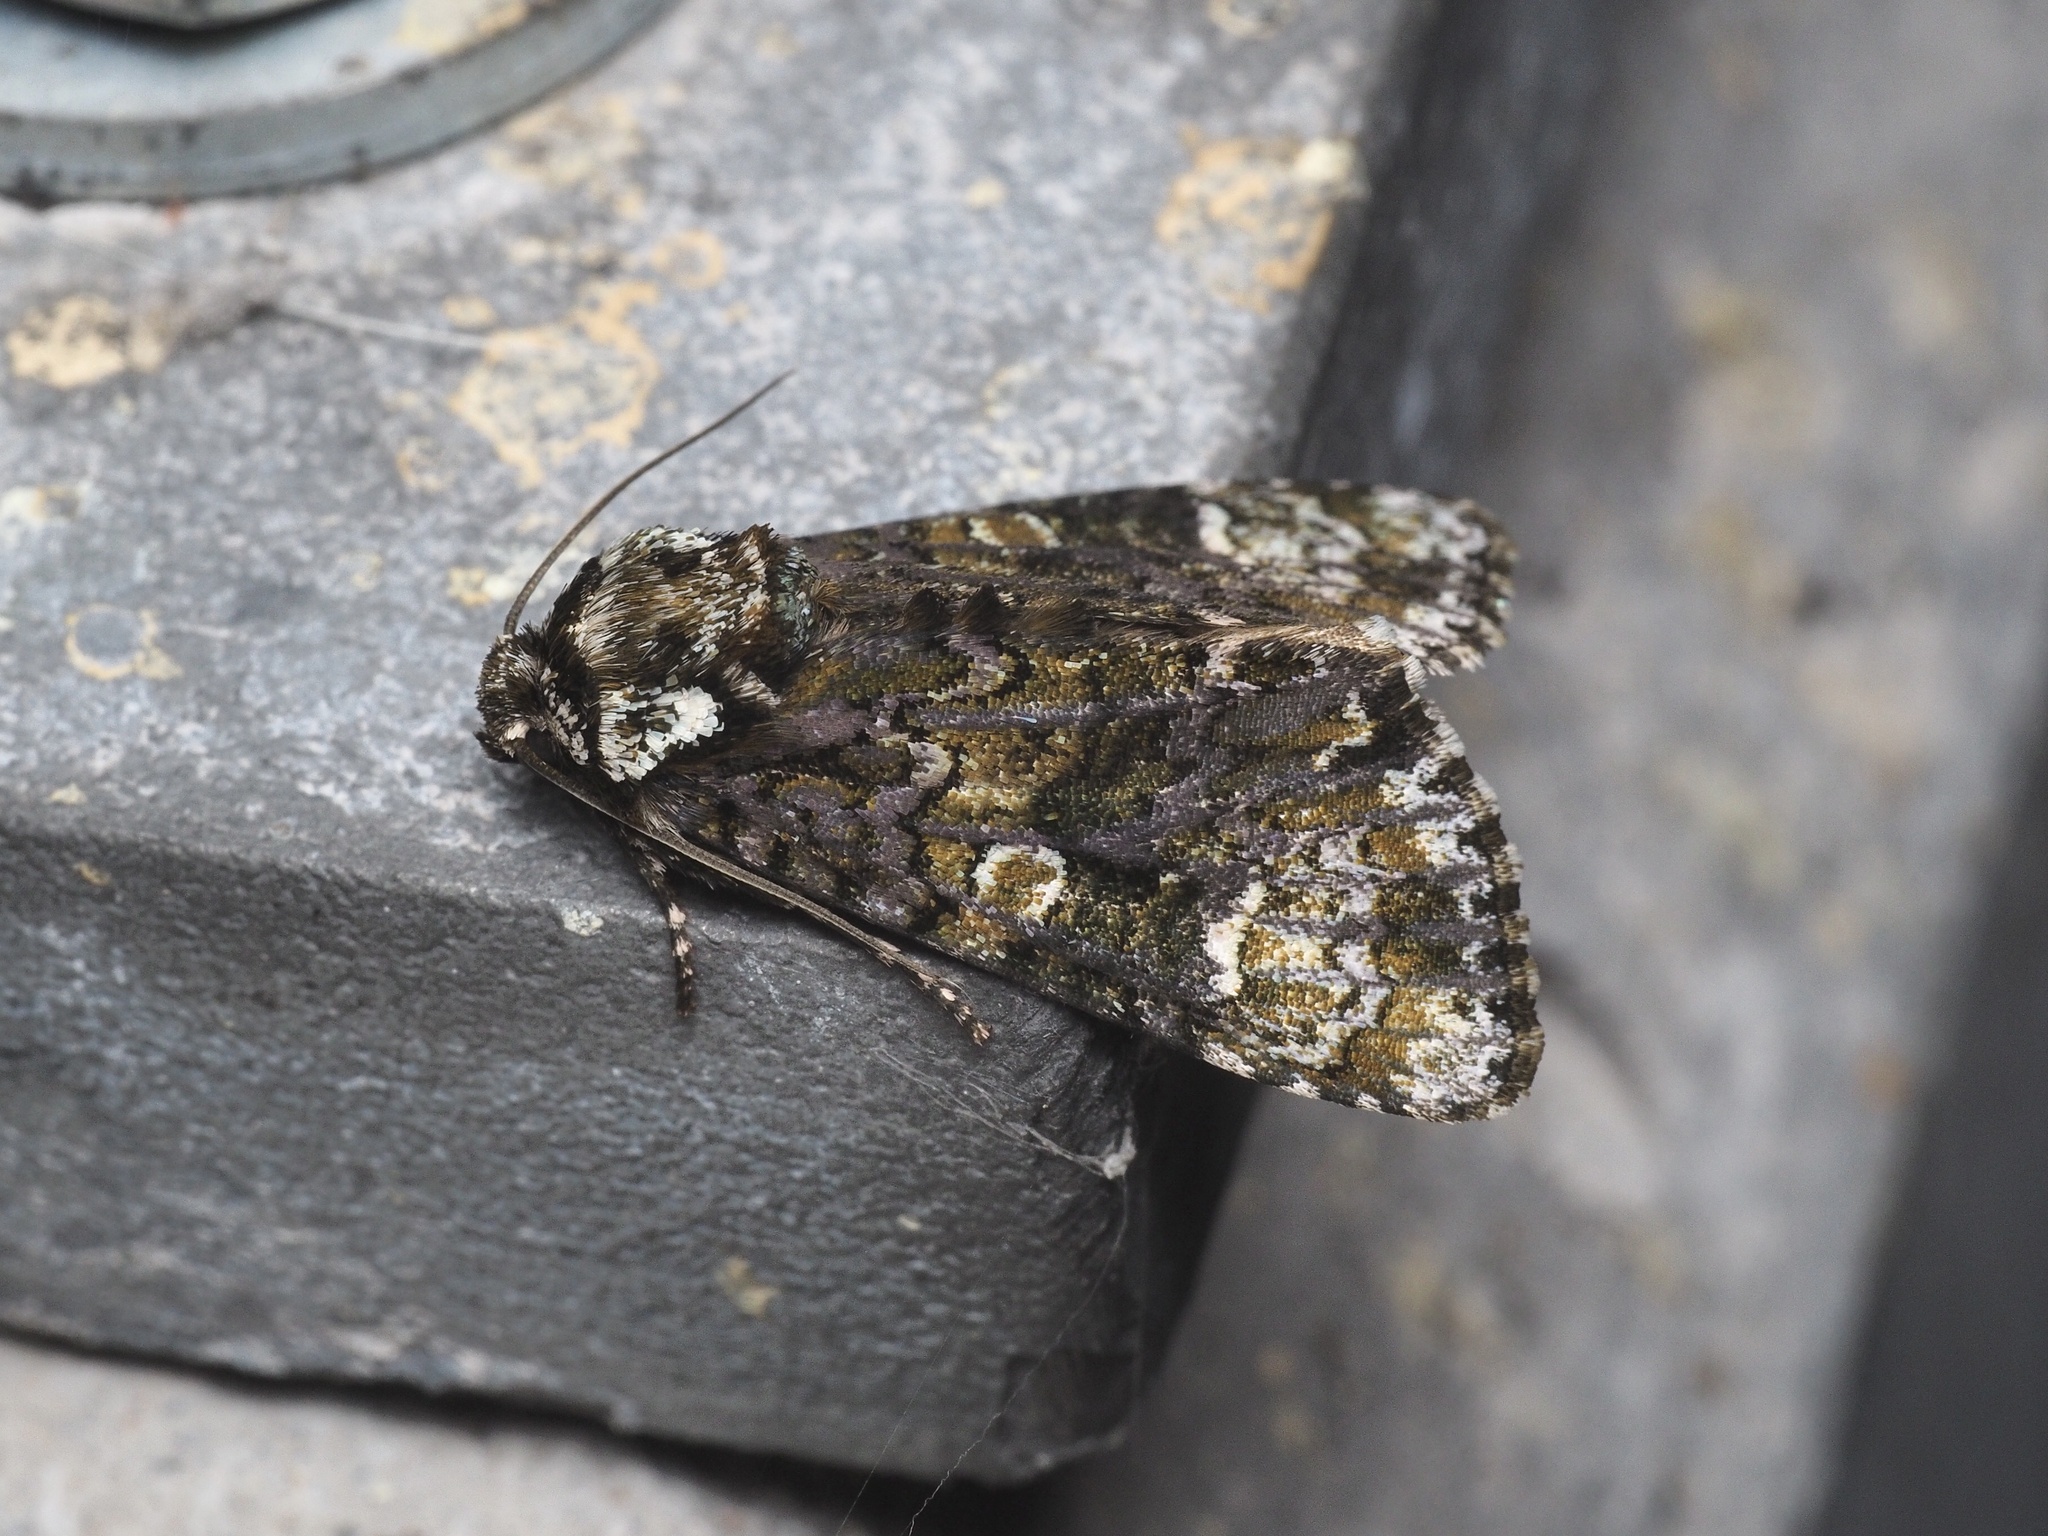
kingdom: Animalia
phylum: Arthropoda
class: Insecta
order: Lepidoptera
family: Noctuidae
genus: Craniophora
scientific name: Craniophora ligustri
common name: Coronet
